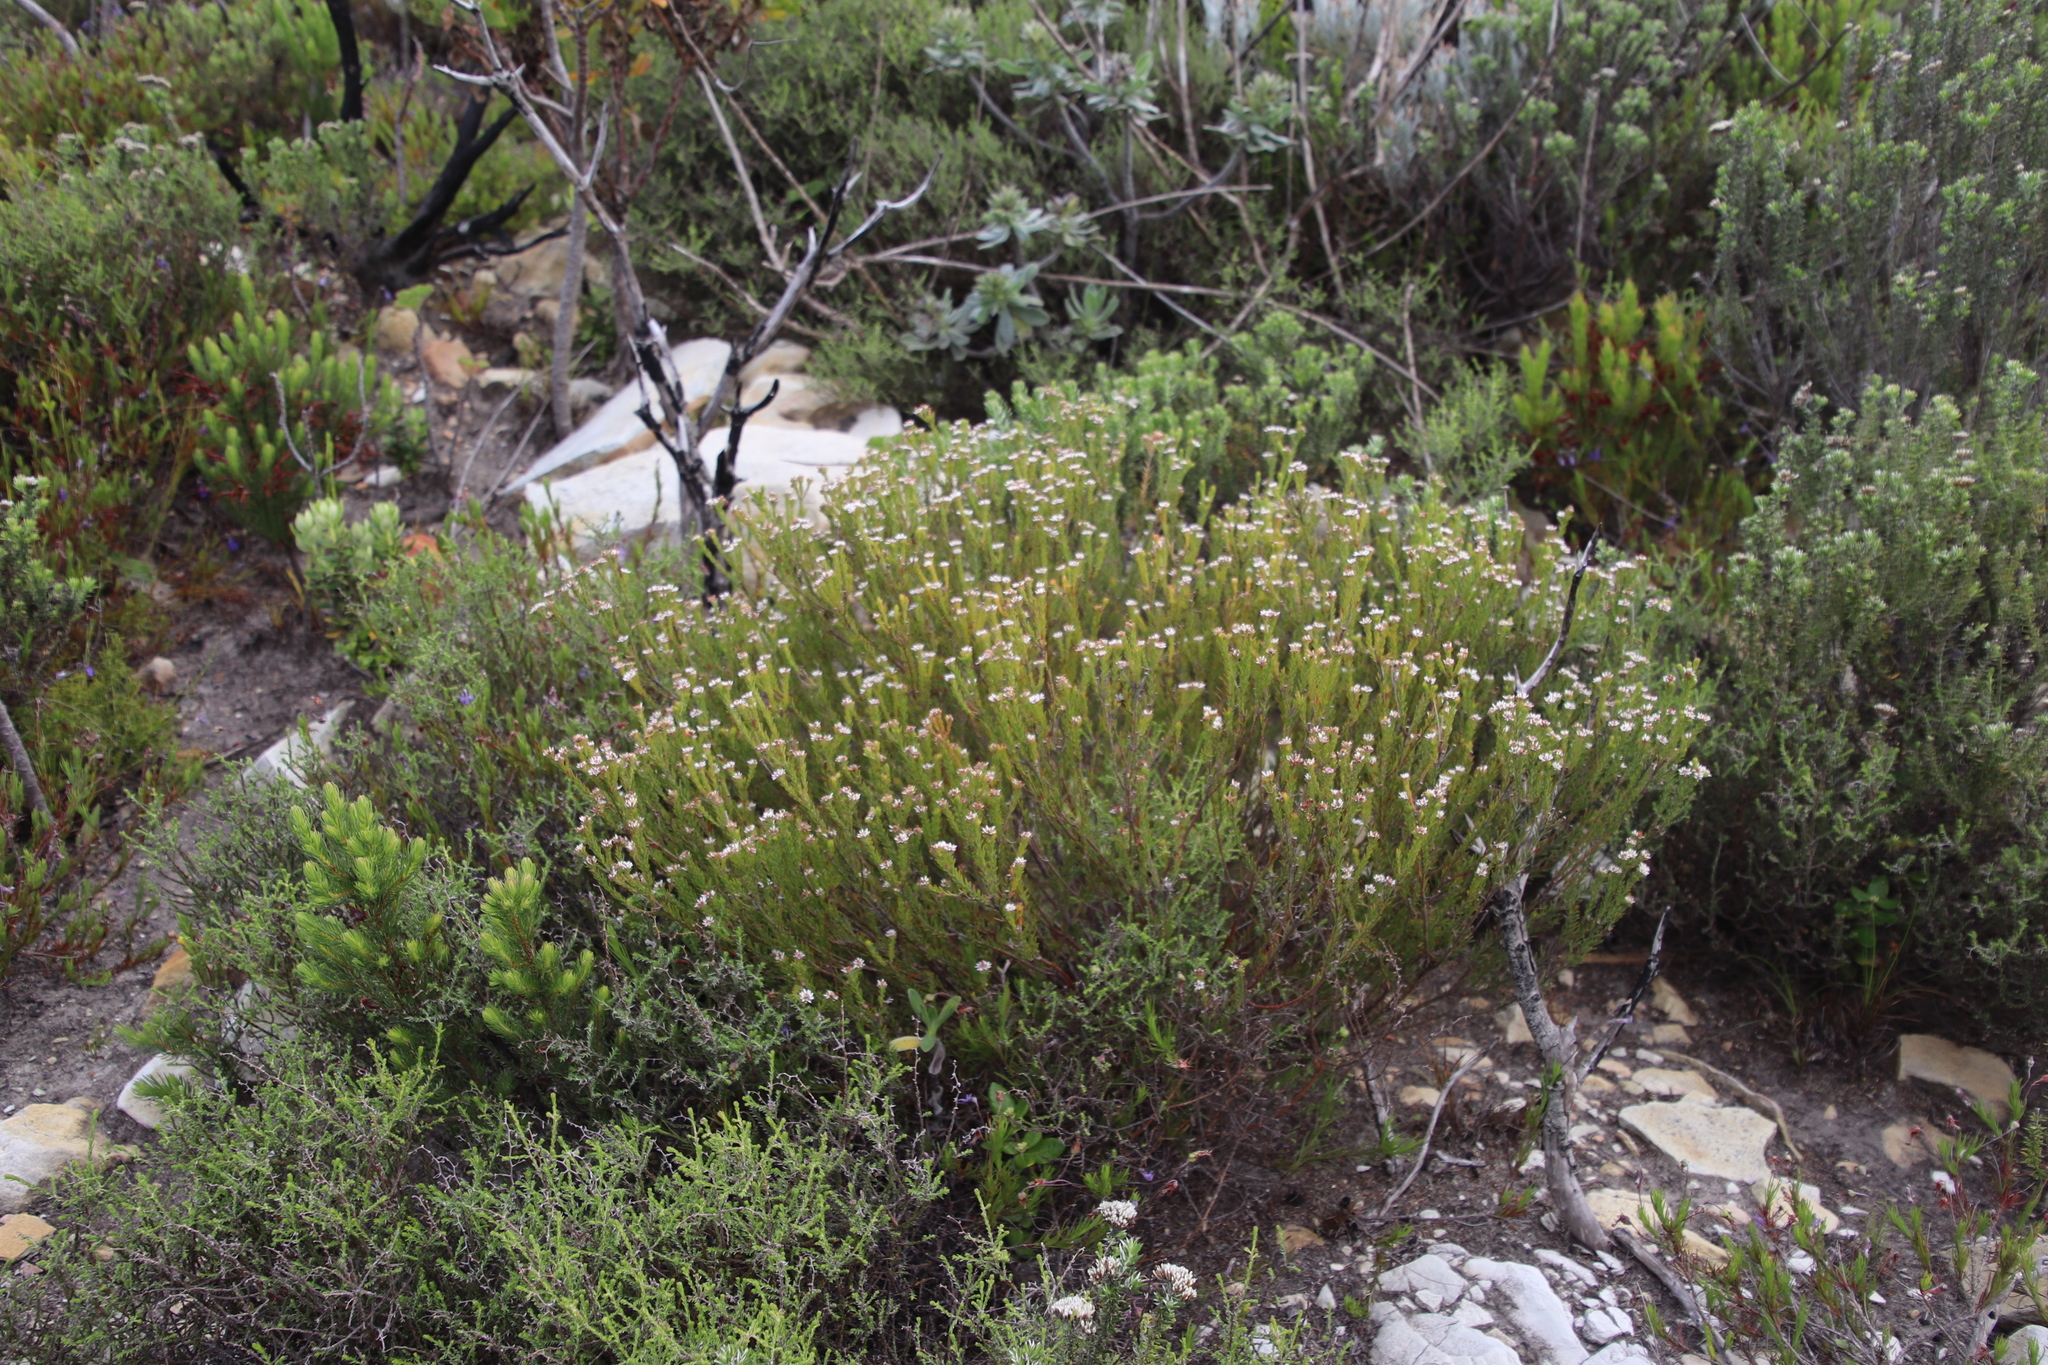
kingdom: Plantae
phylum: Tracheophyta
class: Magnoliopsida
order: Bruniales
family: Bruniaceae
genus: Staavia
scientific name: Staavia radiata
